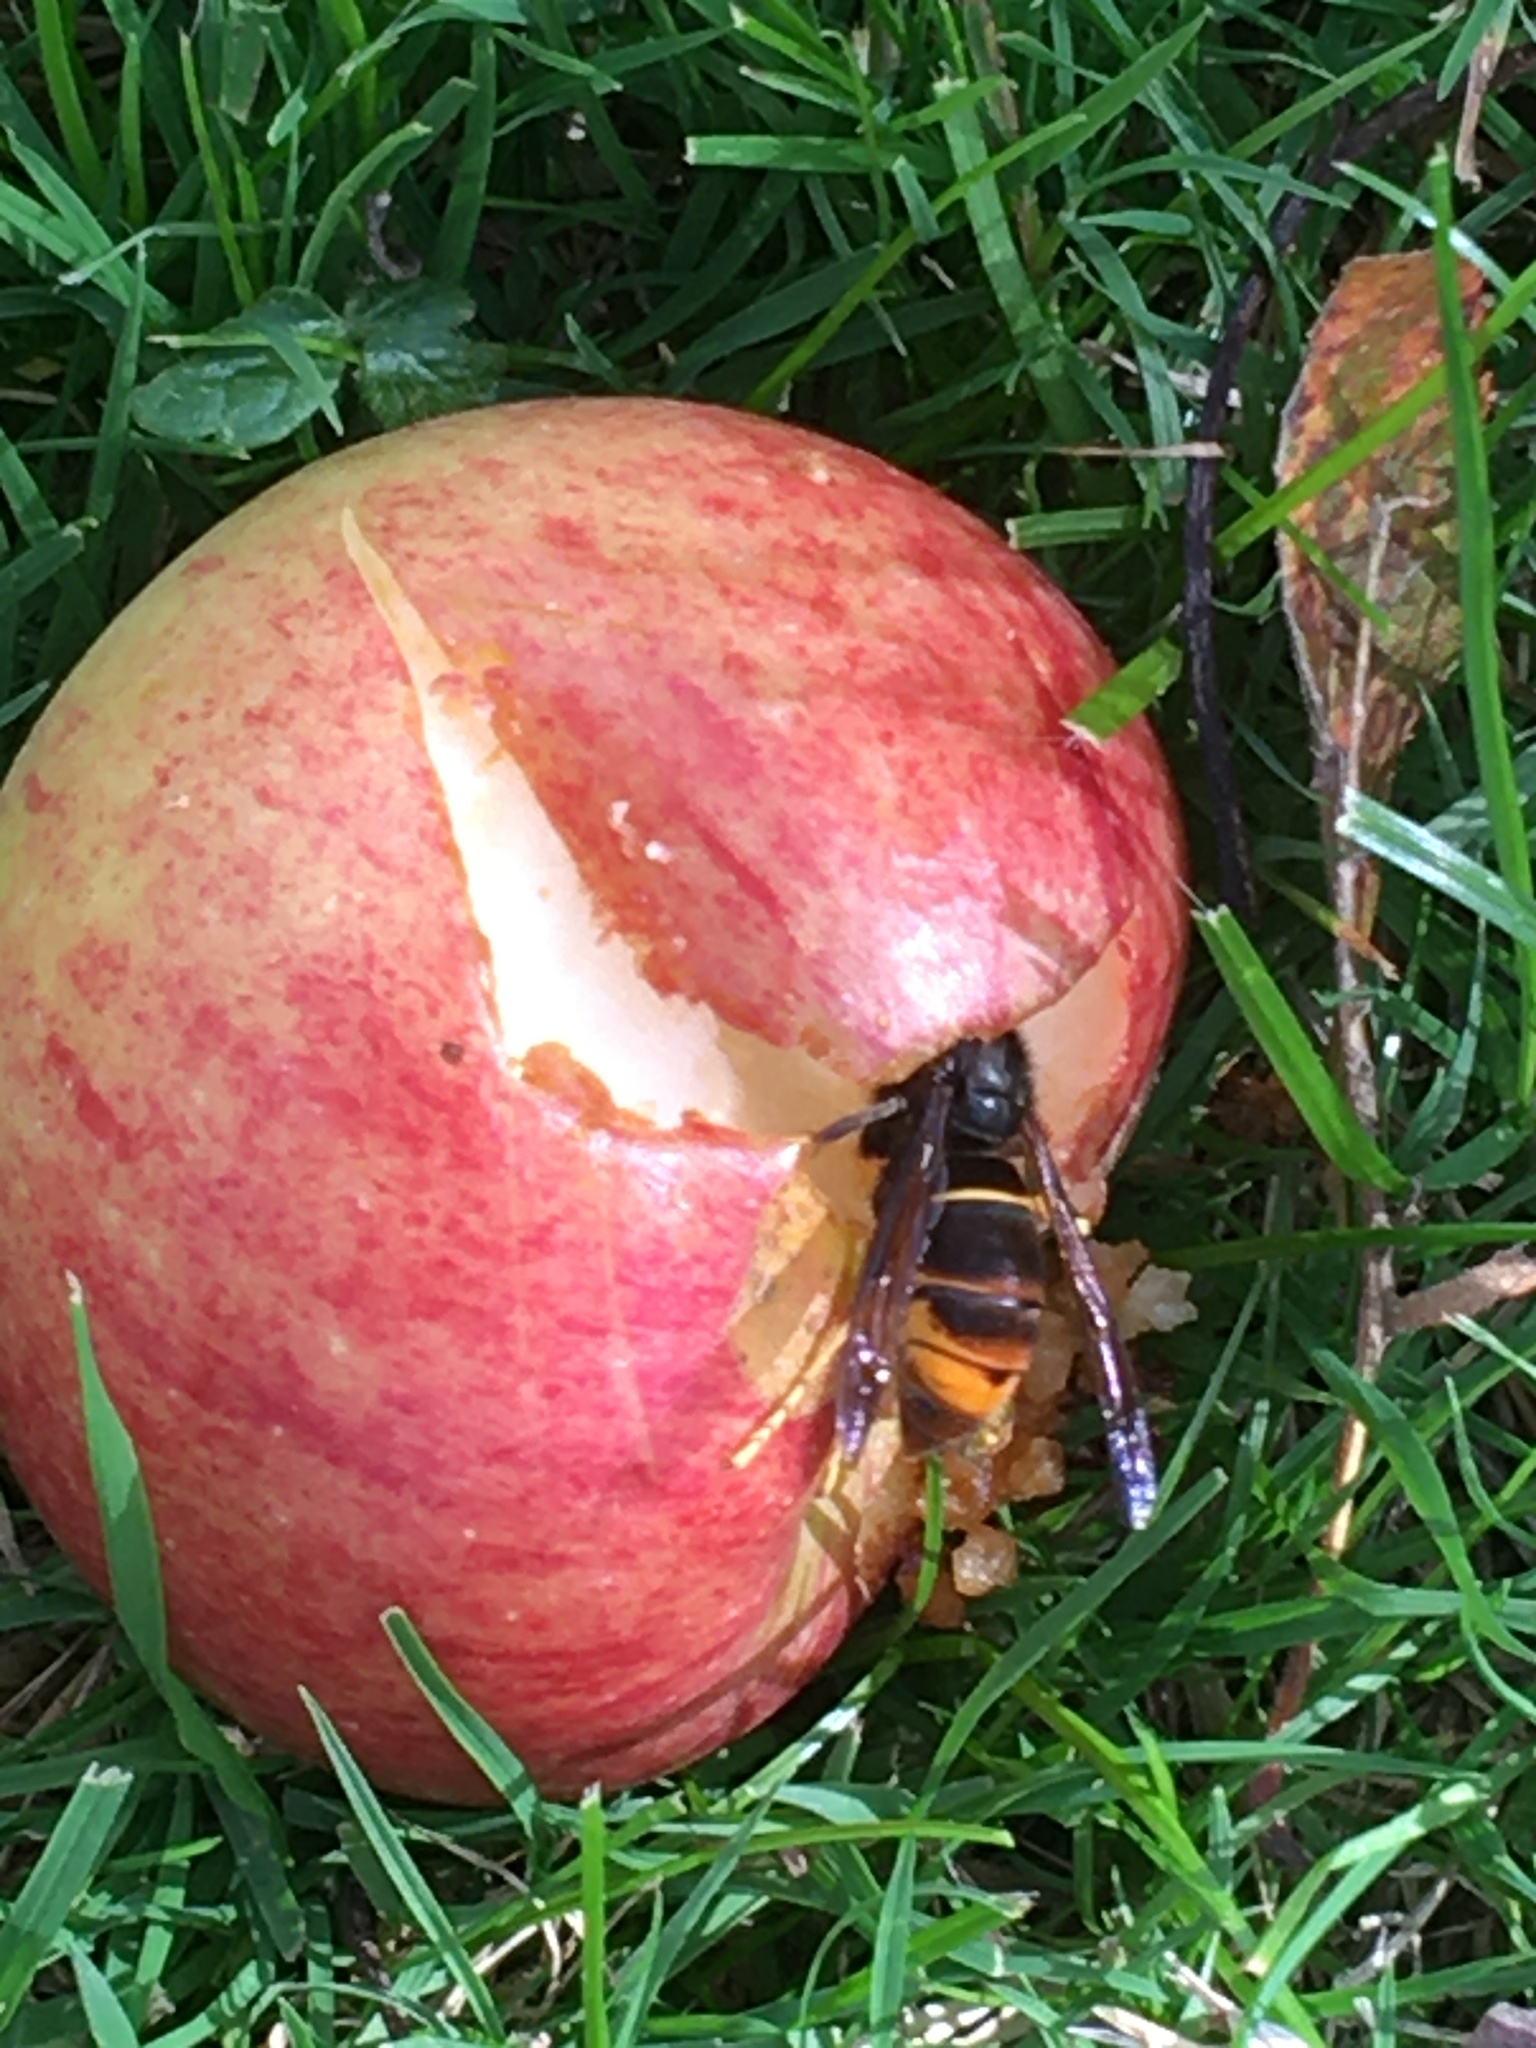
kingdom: Animalia
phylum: Arthropoda
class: Insecta
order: Hymenoptera
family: Vespidae
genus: Vespa
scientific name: Vespa velutina
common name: Asian hornet
